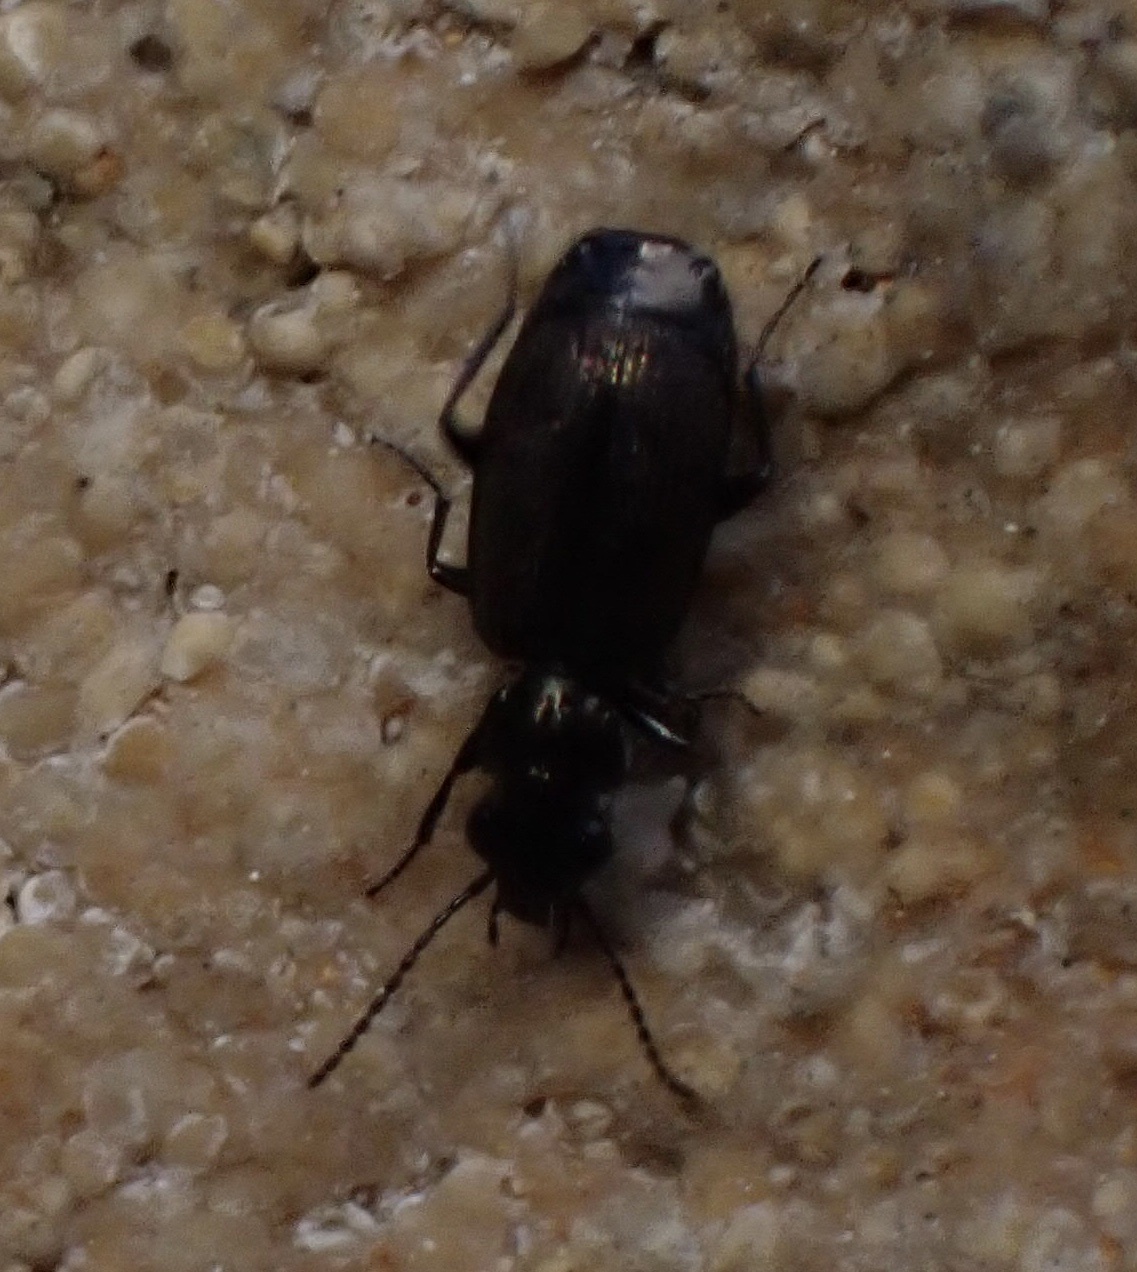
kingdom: Animalia
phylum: Arthropoda
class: Insecta
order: Coleoptera
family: Carabidae
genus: Syntomus
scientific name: Syntomus foveatus
